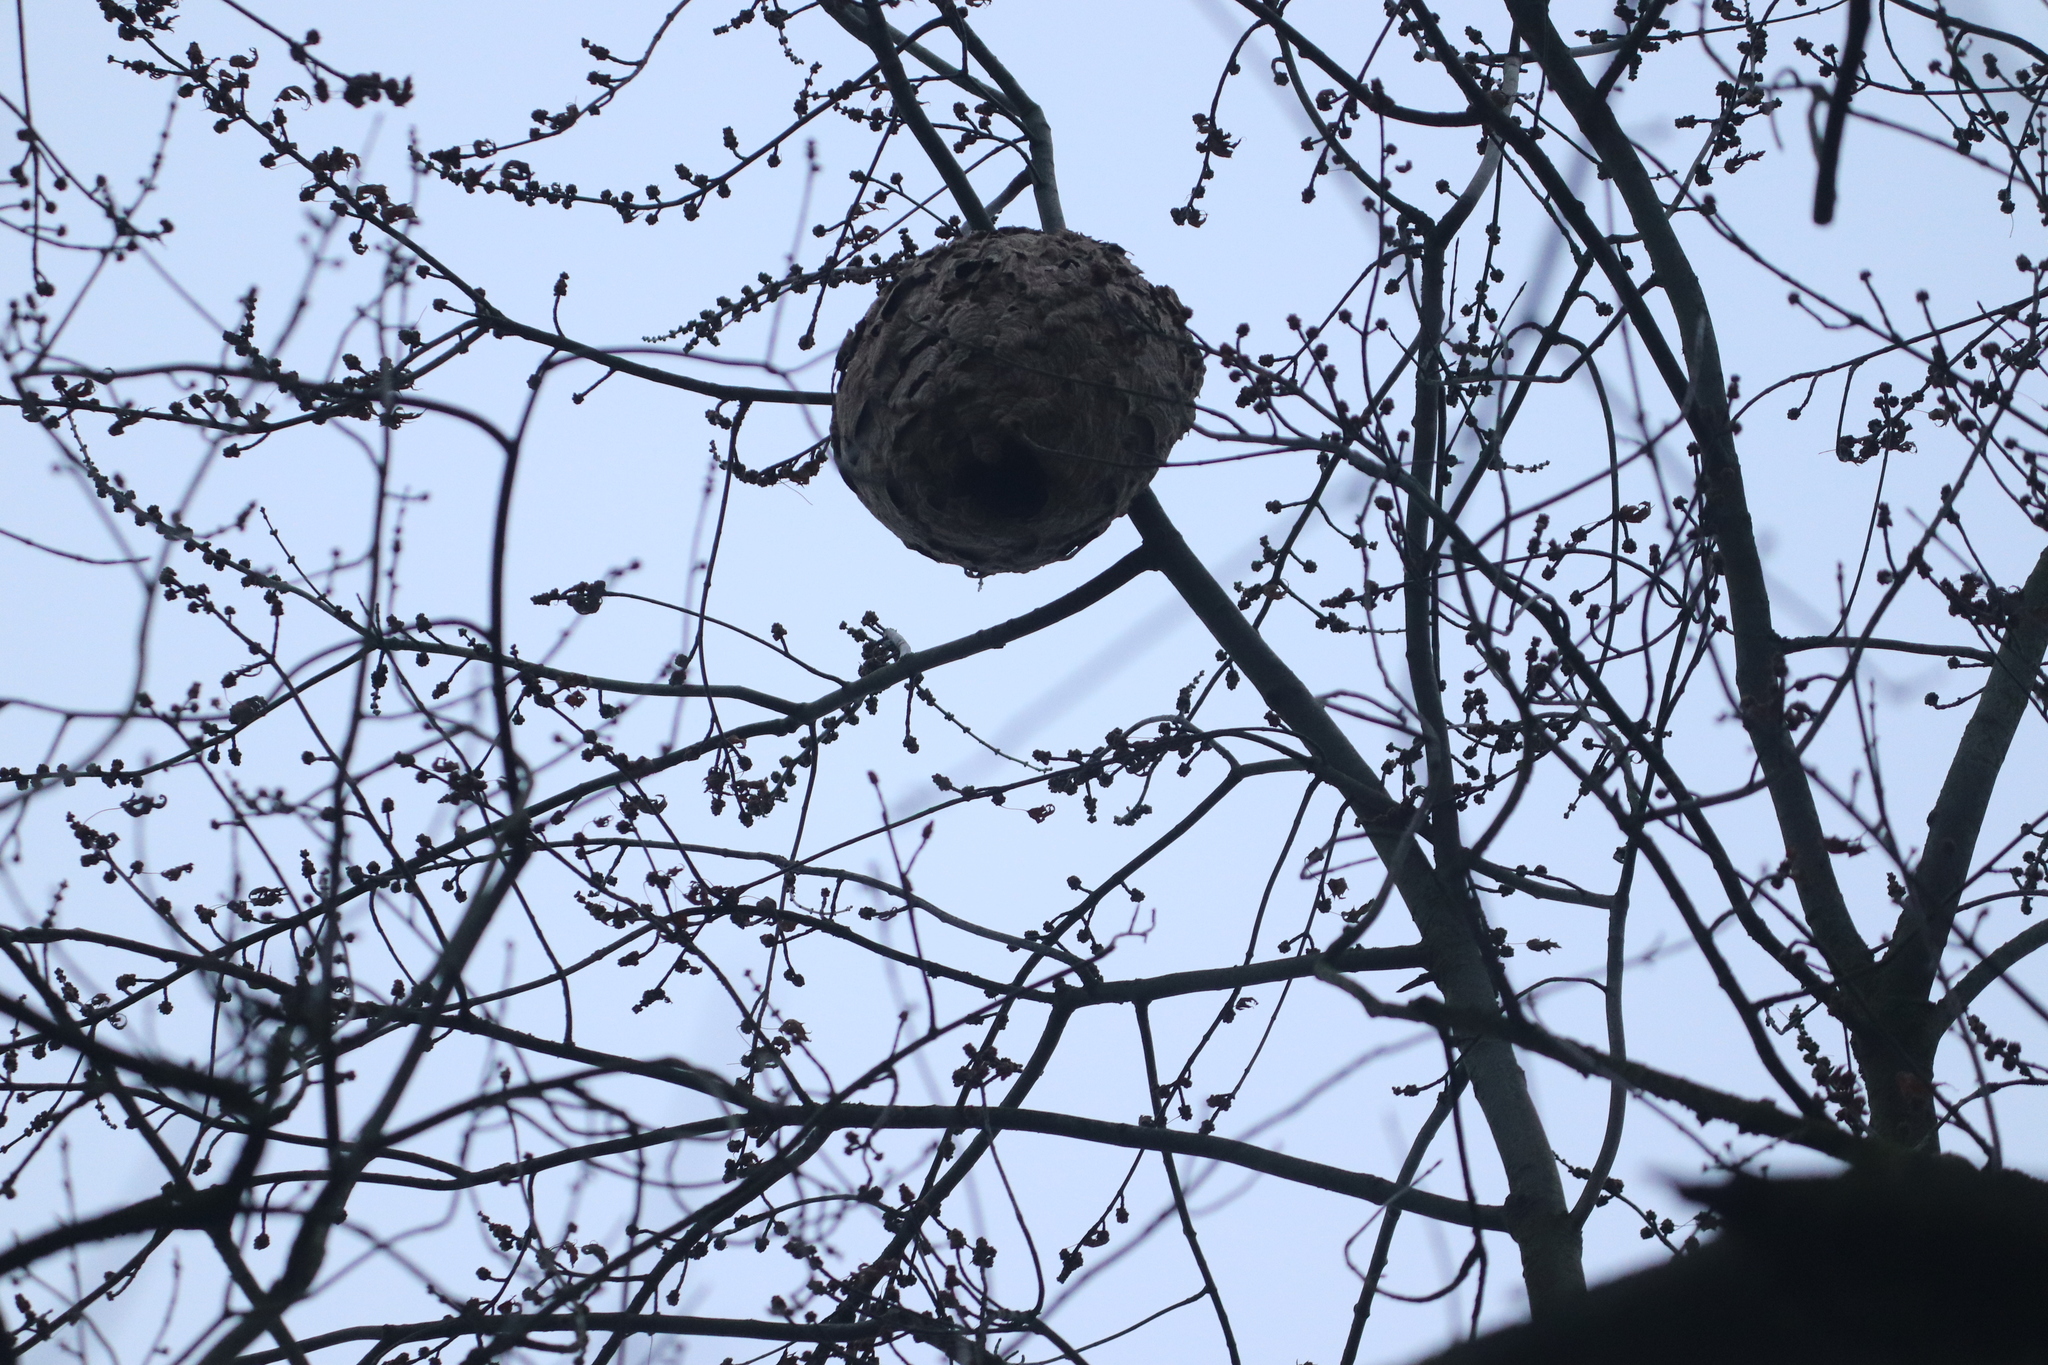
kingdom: Animalia
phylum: Arthropoda
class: Insecta
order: Hymenoptera
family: Vespidae
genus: Vespa
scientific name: Vespa velutina
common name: Asian hornet
